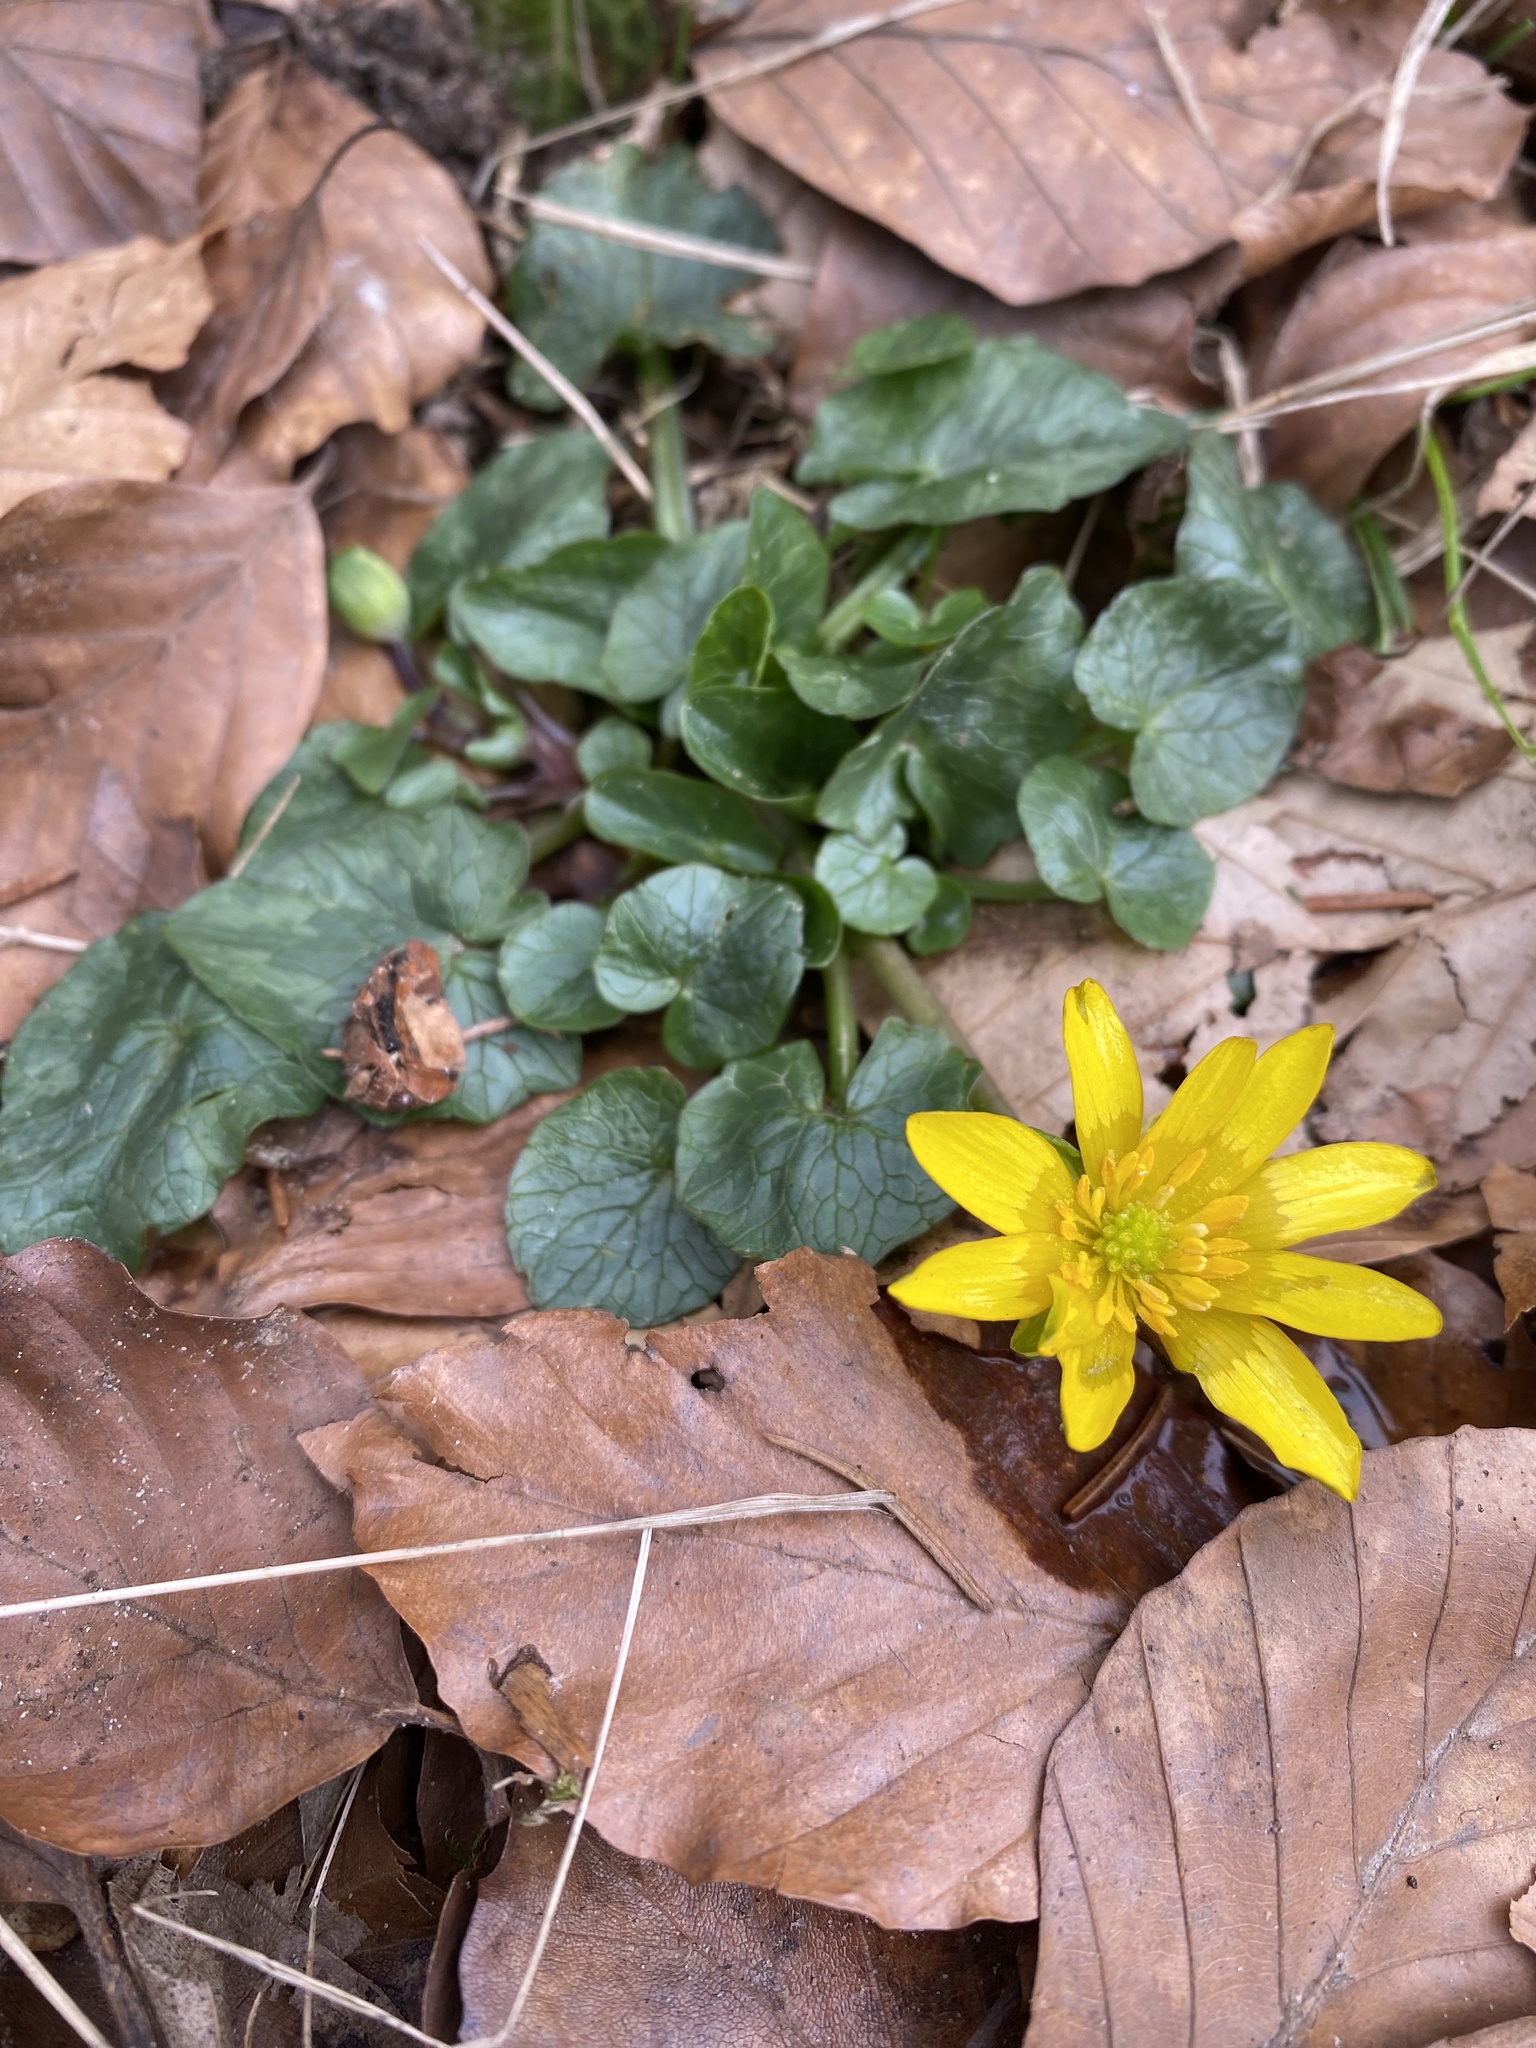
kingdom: Plantae
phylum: Tracheophyta
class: Magnoliopsida
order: Ranunculales
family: Ranunculaceae
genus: Ficaria
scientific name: Ficaria verna
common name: Lesser celandine
